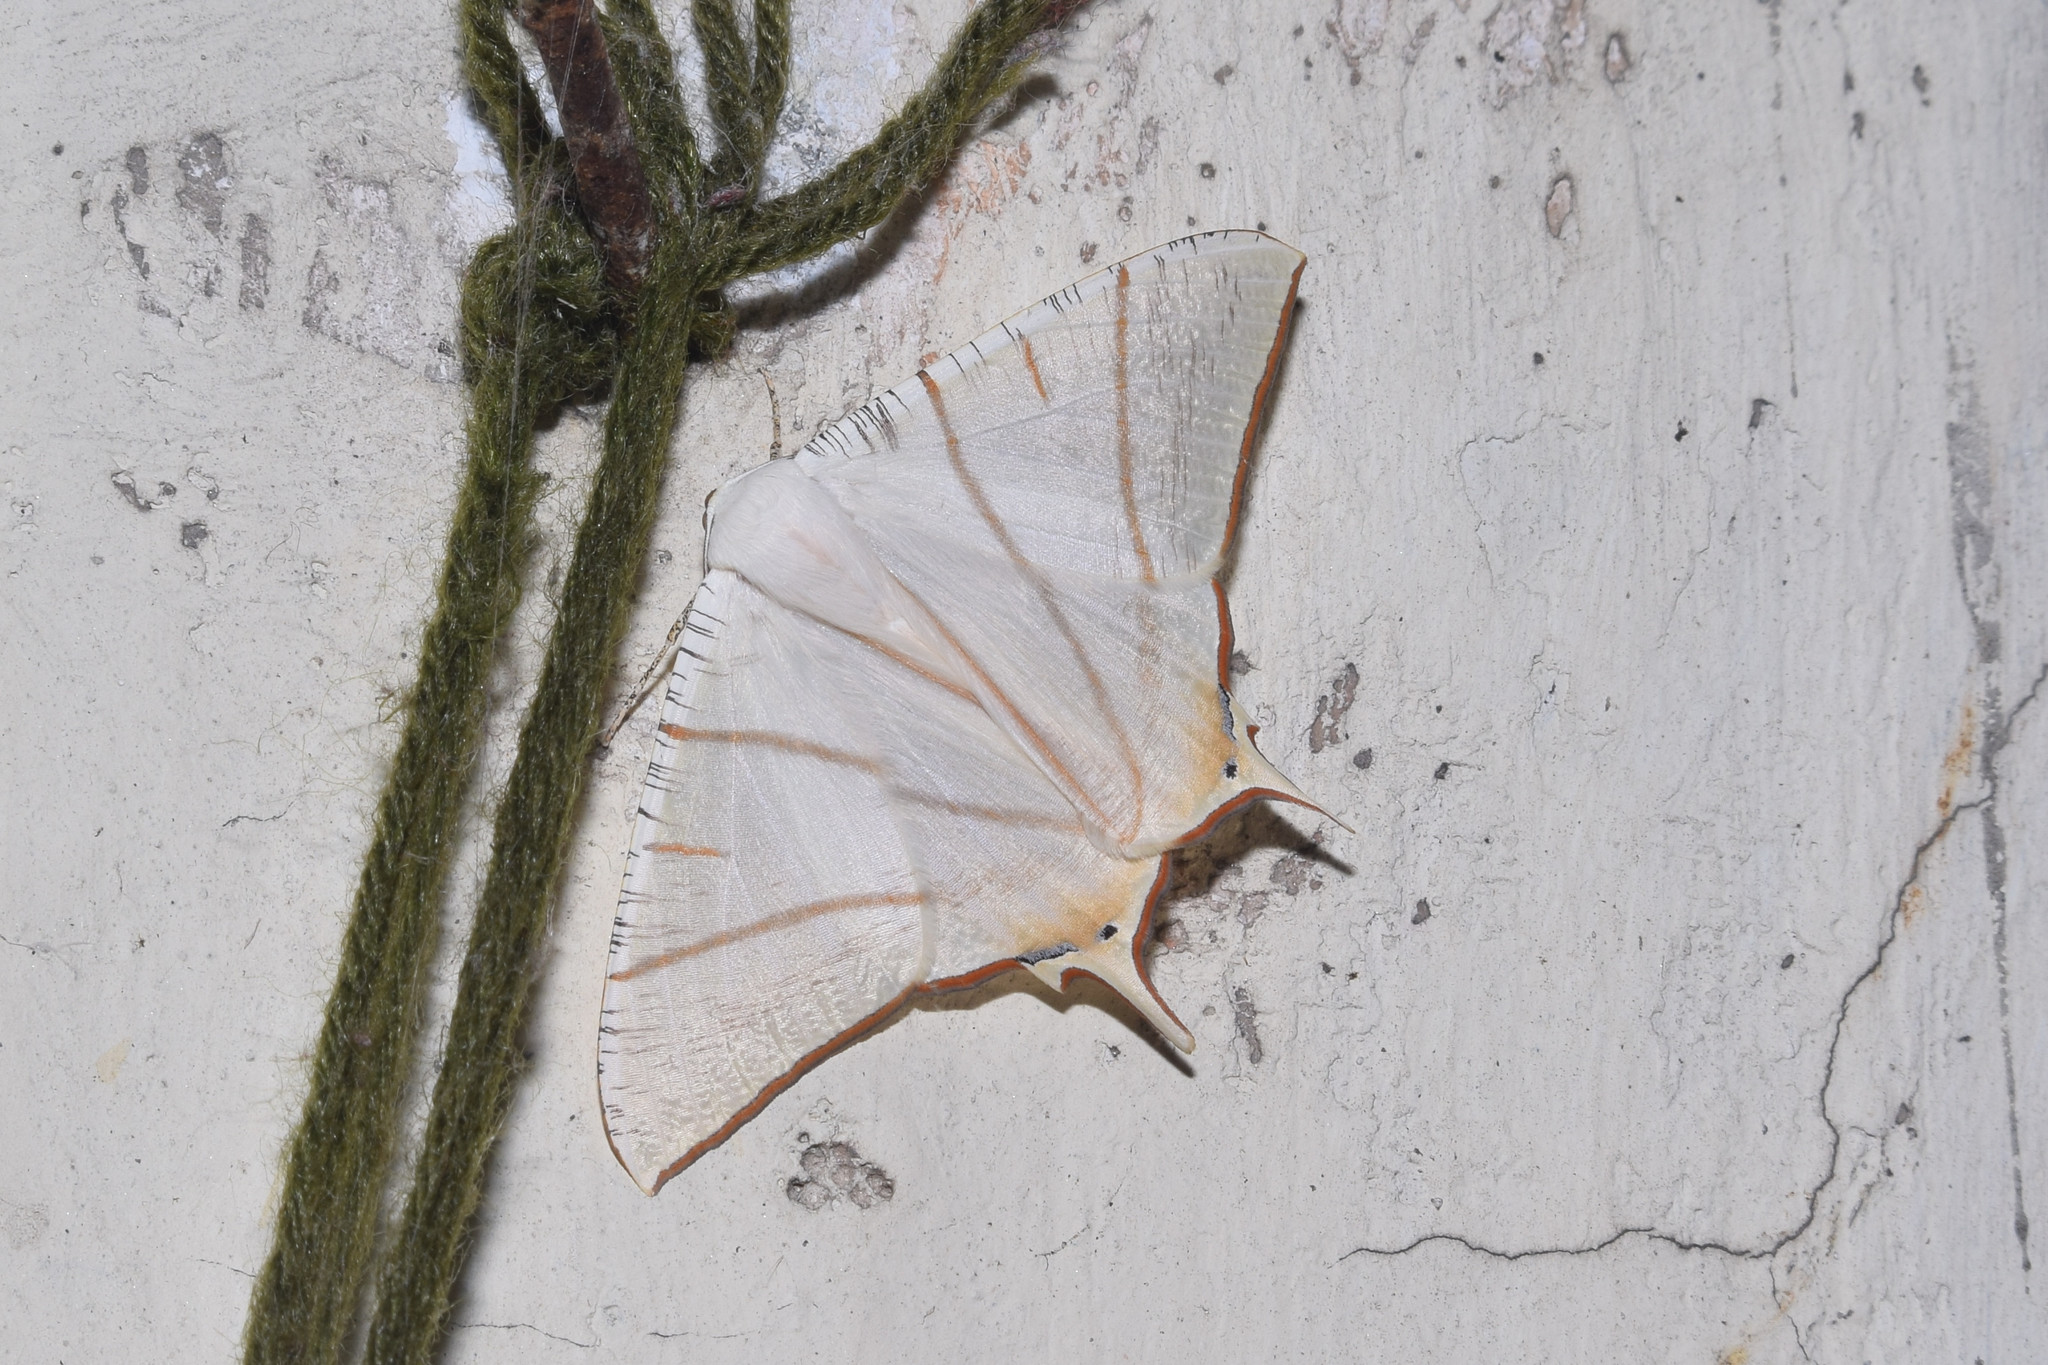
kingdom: Animalia
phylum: Arthropoda
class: Insecta
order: Lepidoptera
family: Geometridae
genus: Ourapteryx
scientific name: Ourapteryx clara
